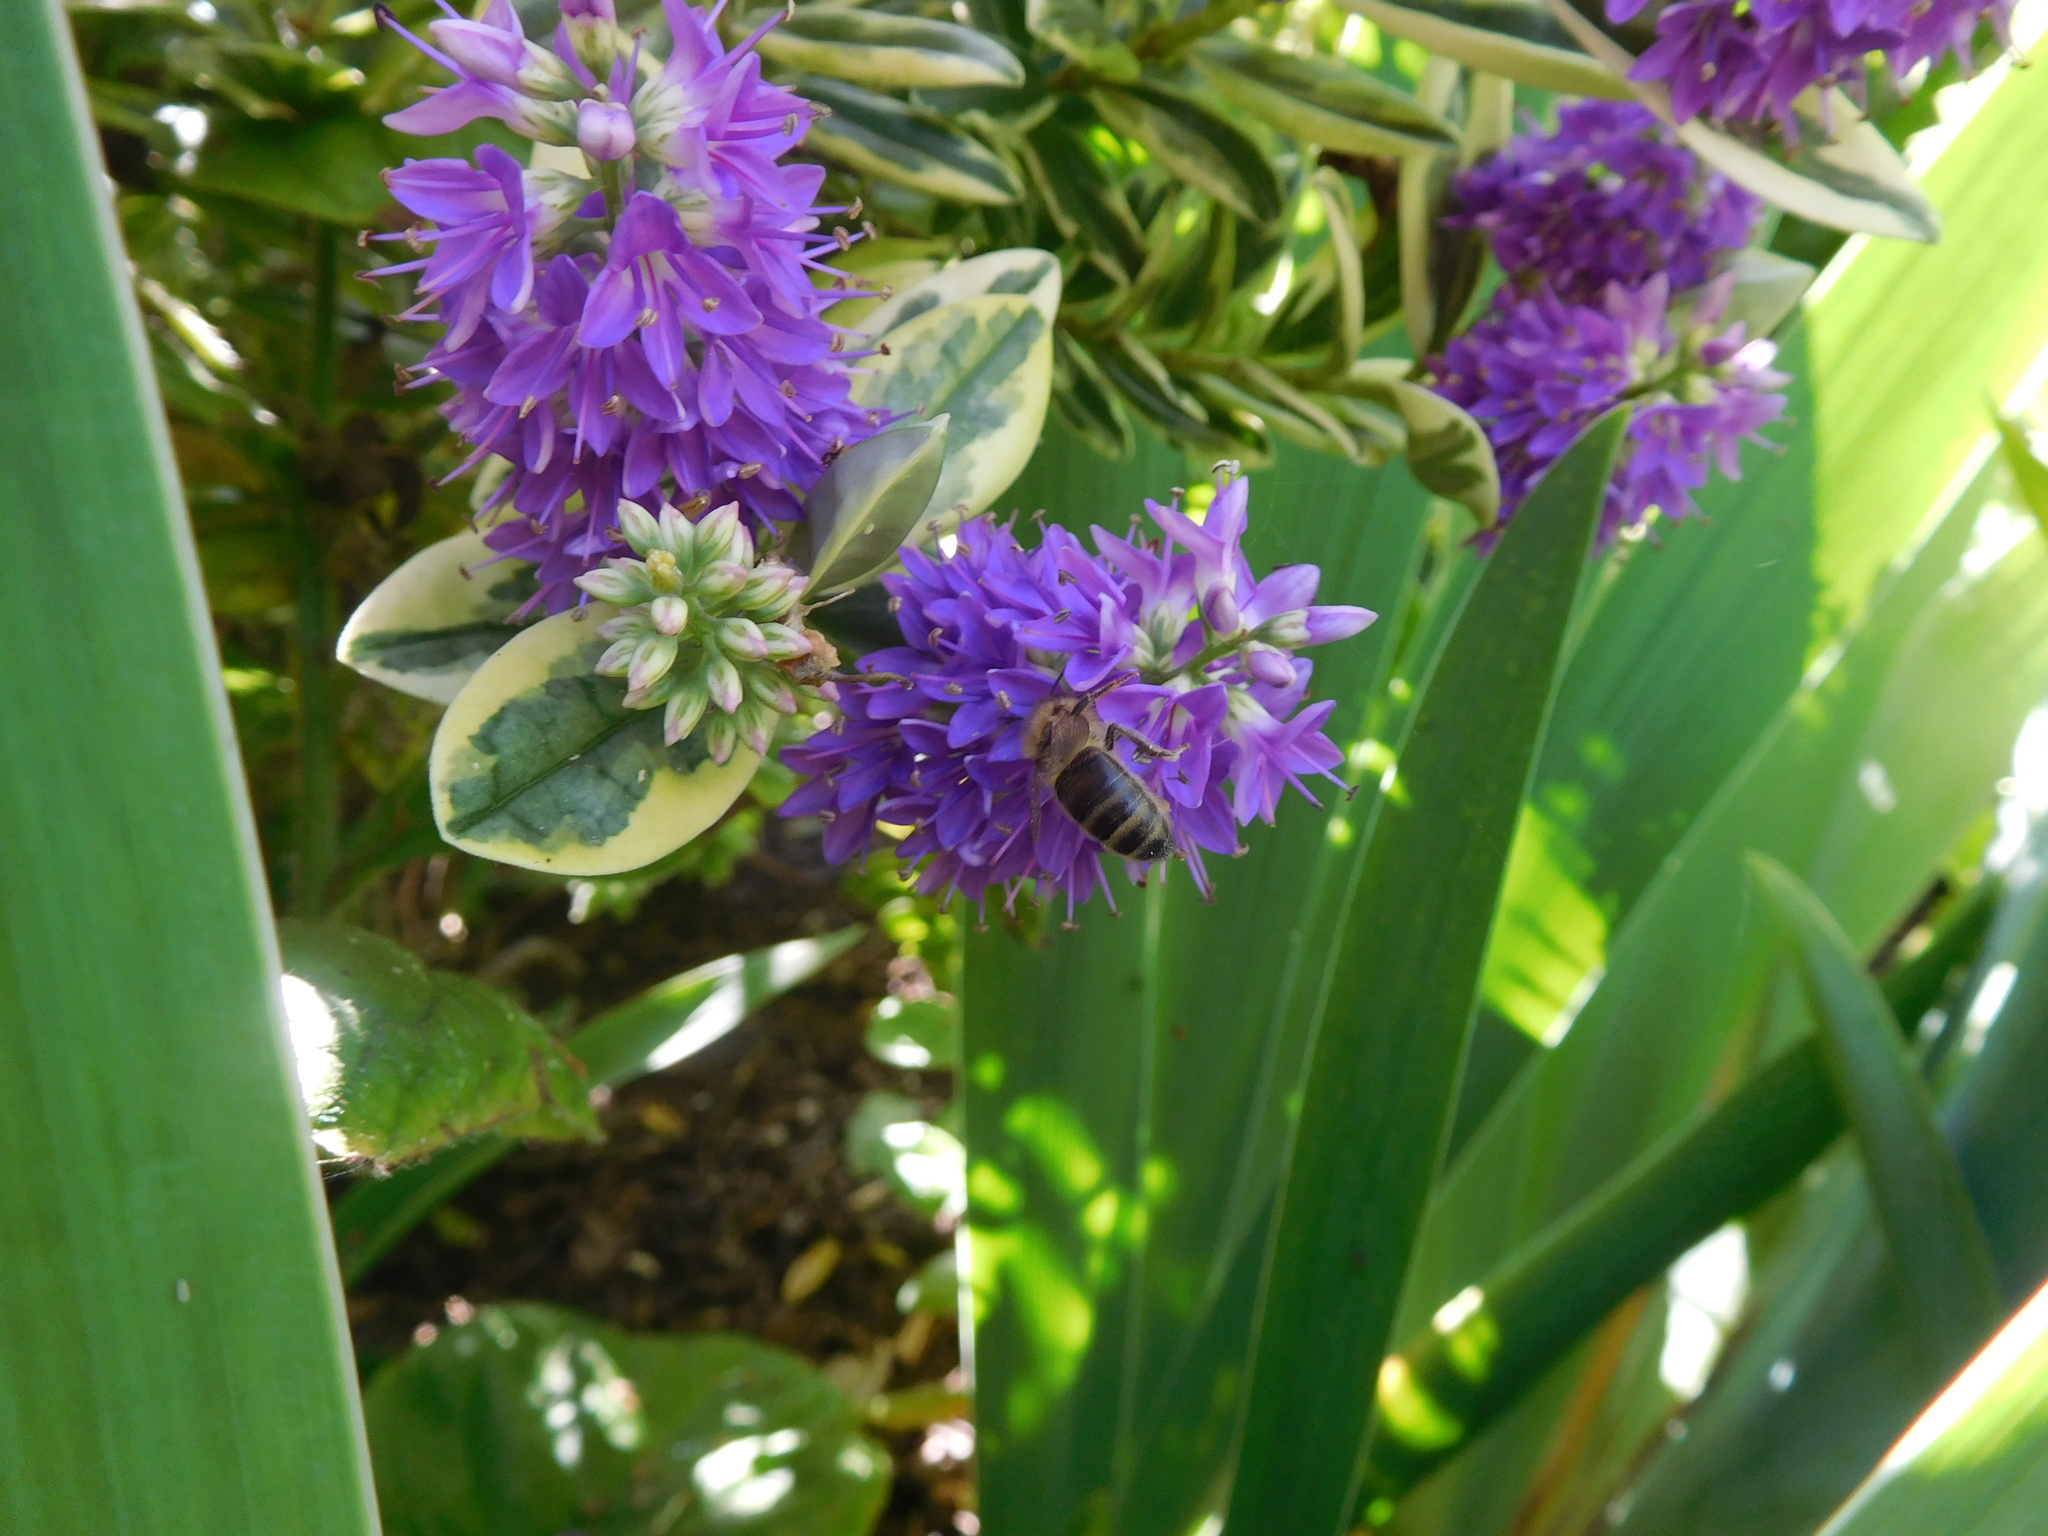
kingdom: Animalia
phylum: Arthropoda
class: Insecta
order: Hymenoptera
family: Apidae
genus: Apis
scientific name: Apis mellifera
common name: Honey bee
